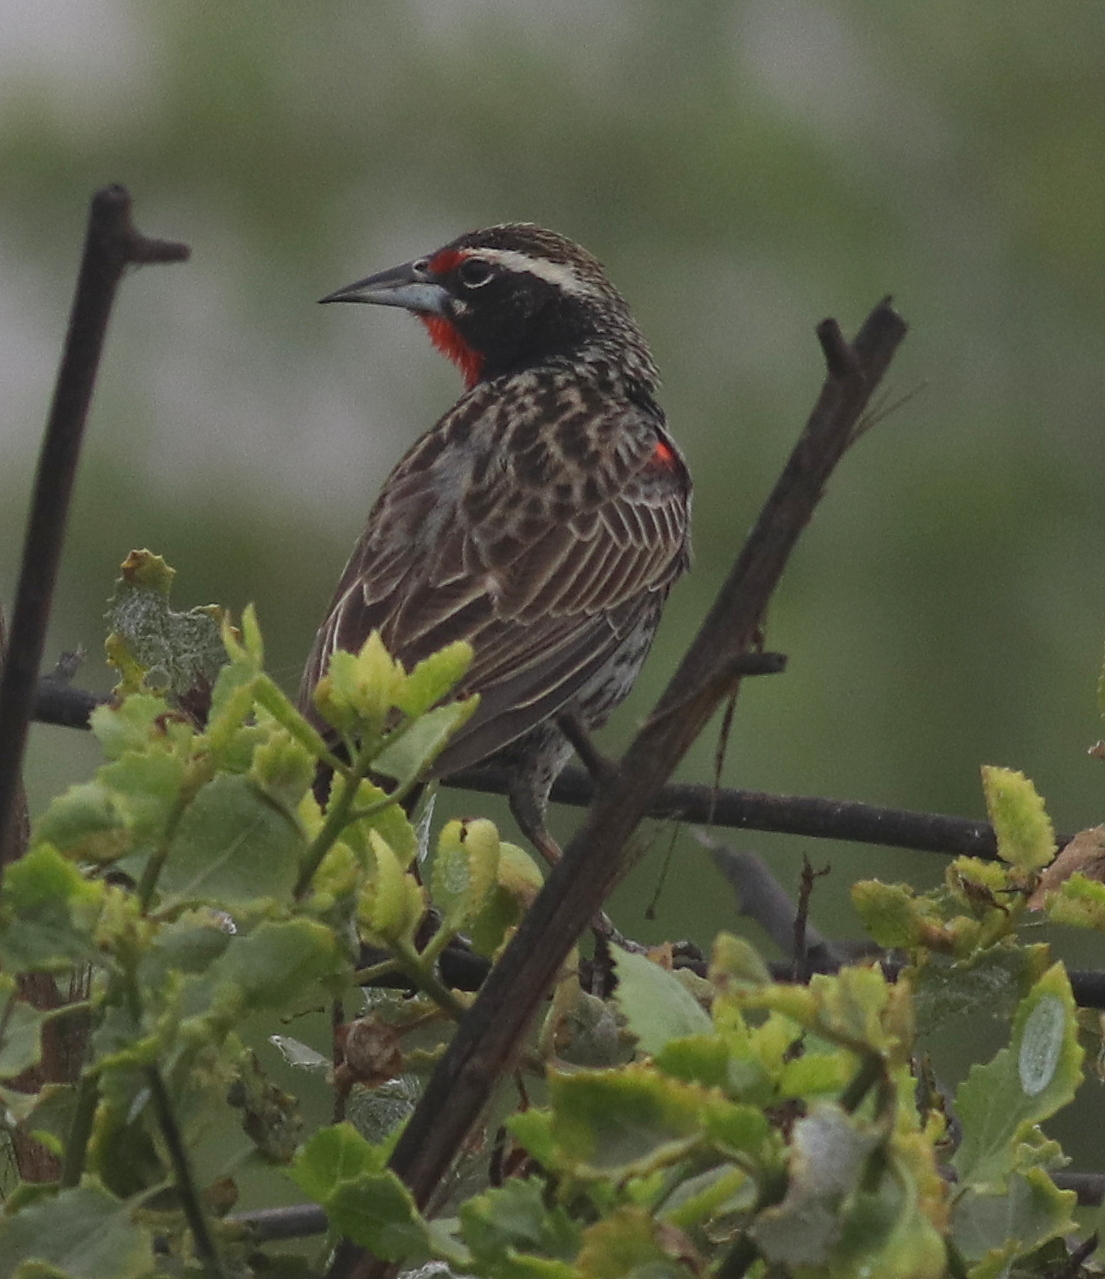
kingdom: Animalia
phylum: Chordata
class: Aves
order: Passeriformes
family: Icteridae
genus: Sturnella
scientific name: Sturnella bellicosa
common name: Peruvian meadowlark
